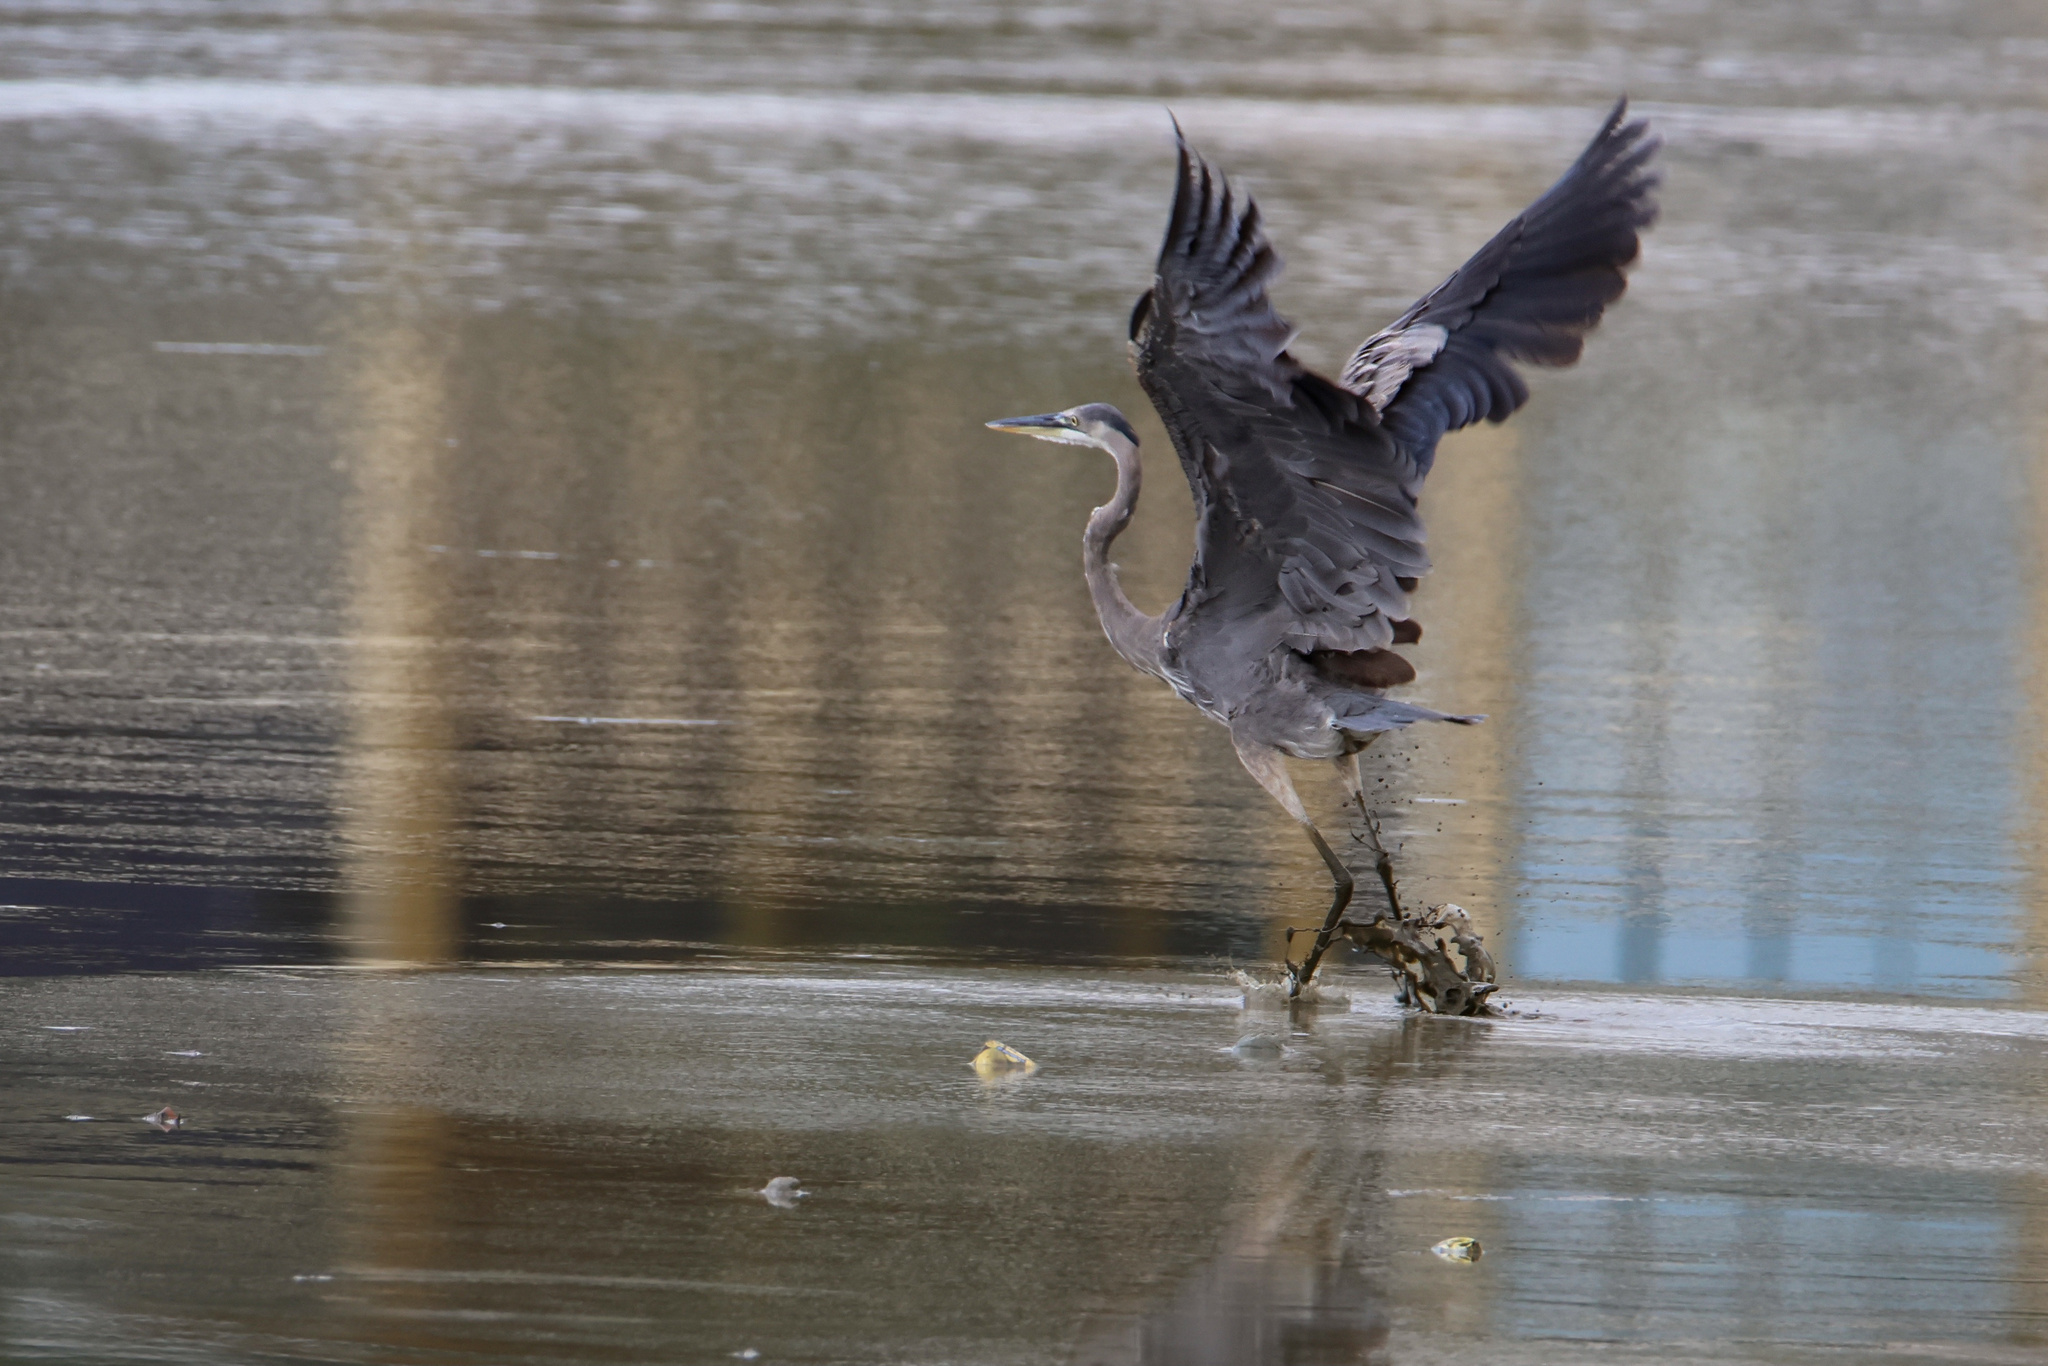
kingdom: Animalia
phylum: Chordata
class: Aves
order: Pelecaniformes
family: Ardeidae
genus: Ardea
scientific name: Ardea herodias
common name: Great blue heron
